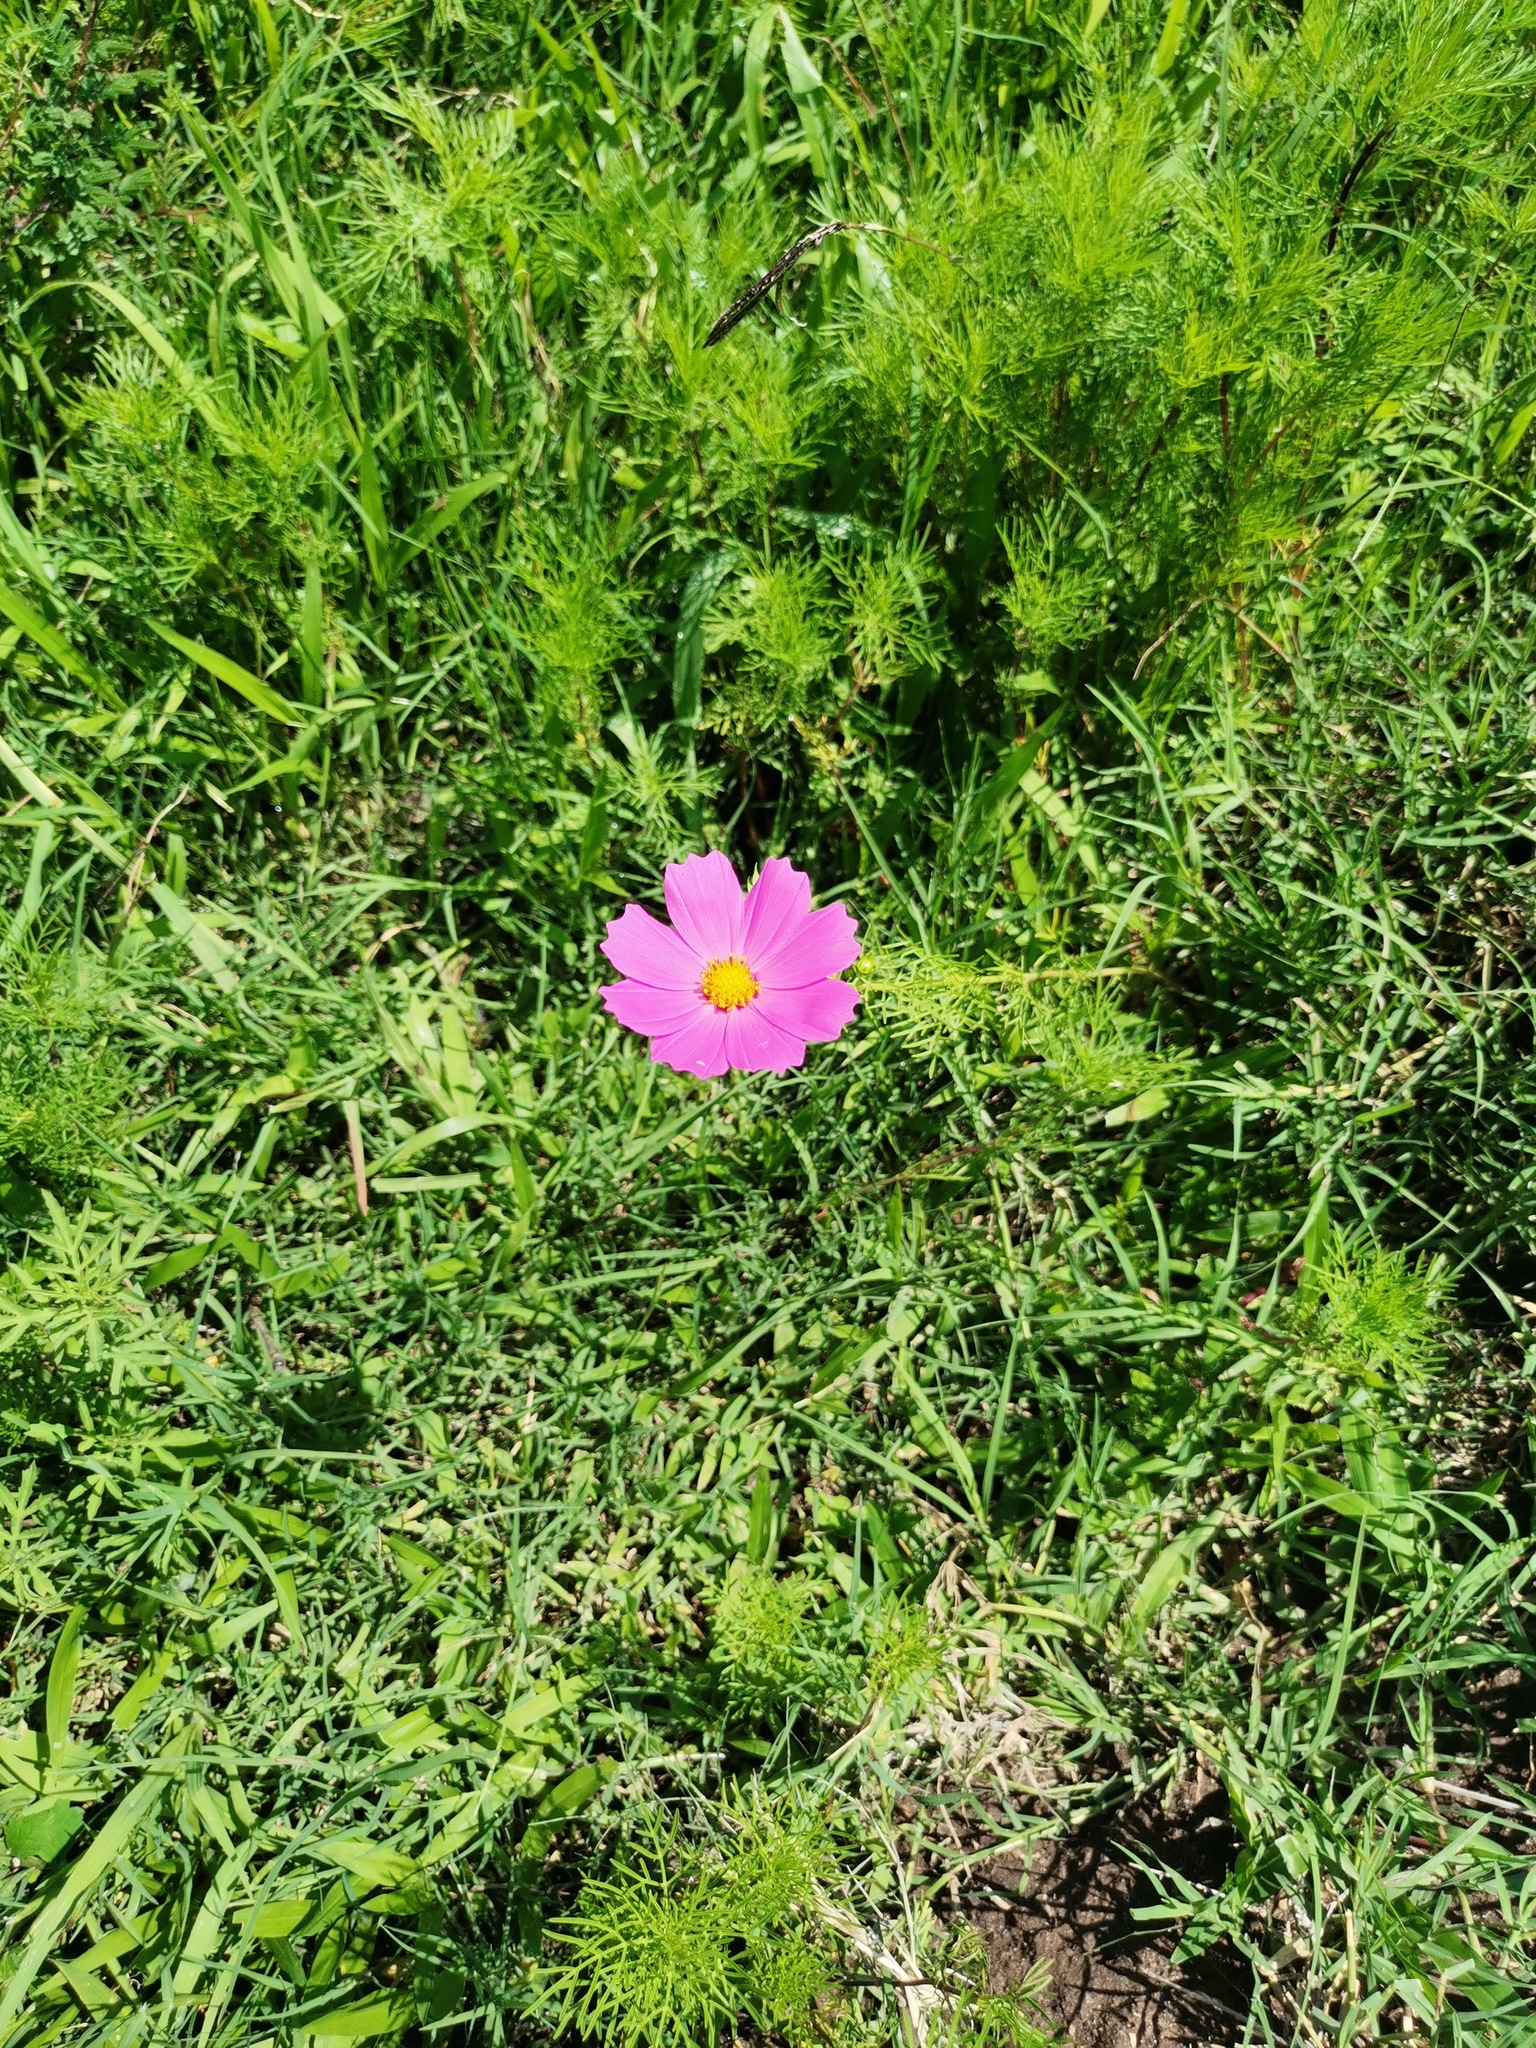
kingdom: Plantae
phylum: Tracheophyta
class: Magnoliopsida
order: Asterales
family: Asteraceae
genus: Cosmos
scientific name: Cosmos bipinnatus
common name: Garden cosmos
